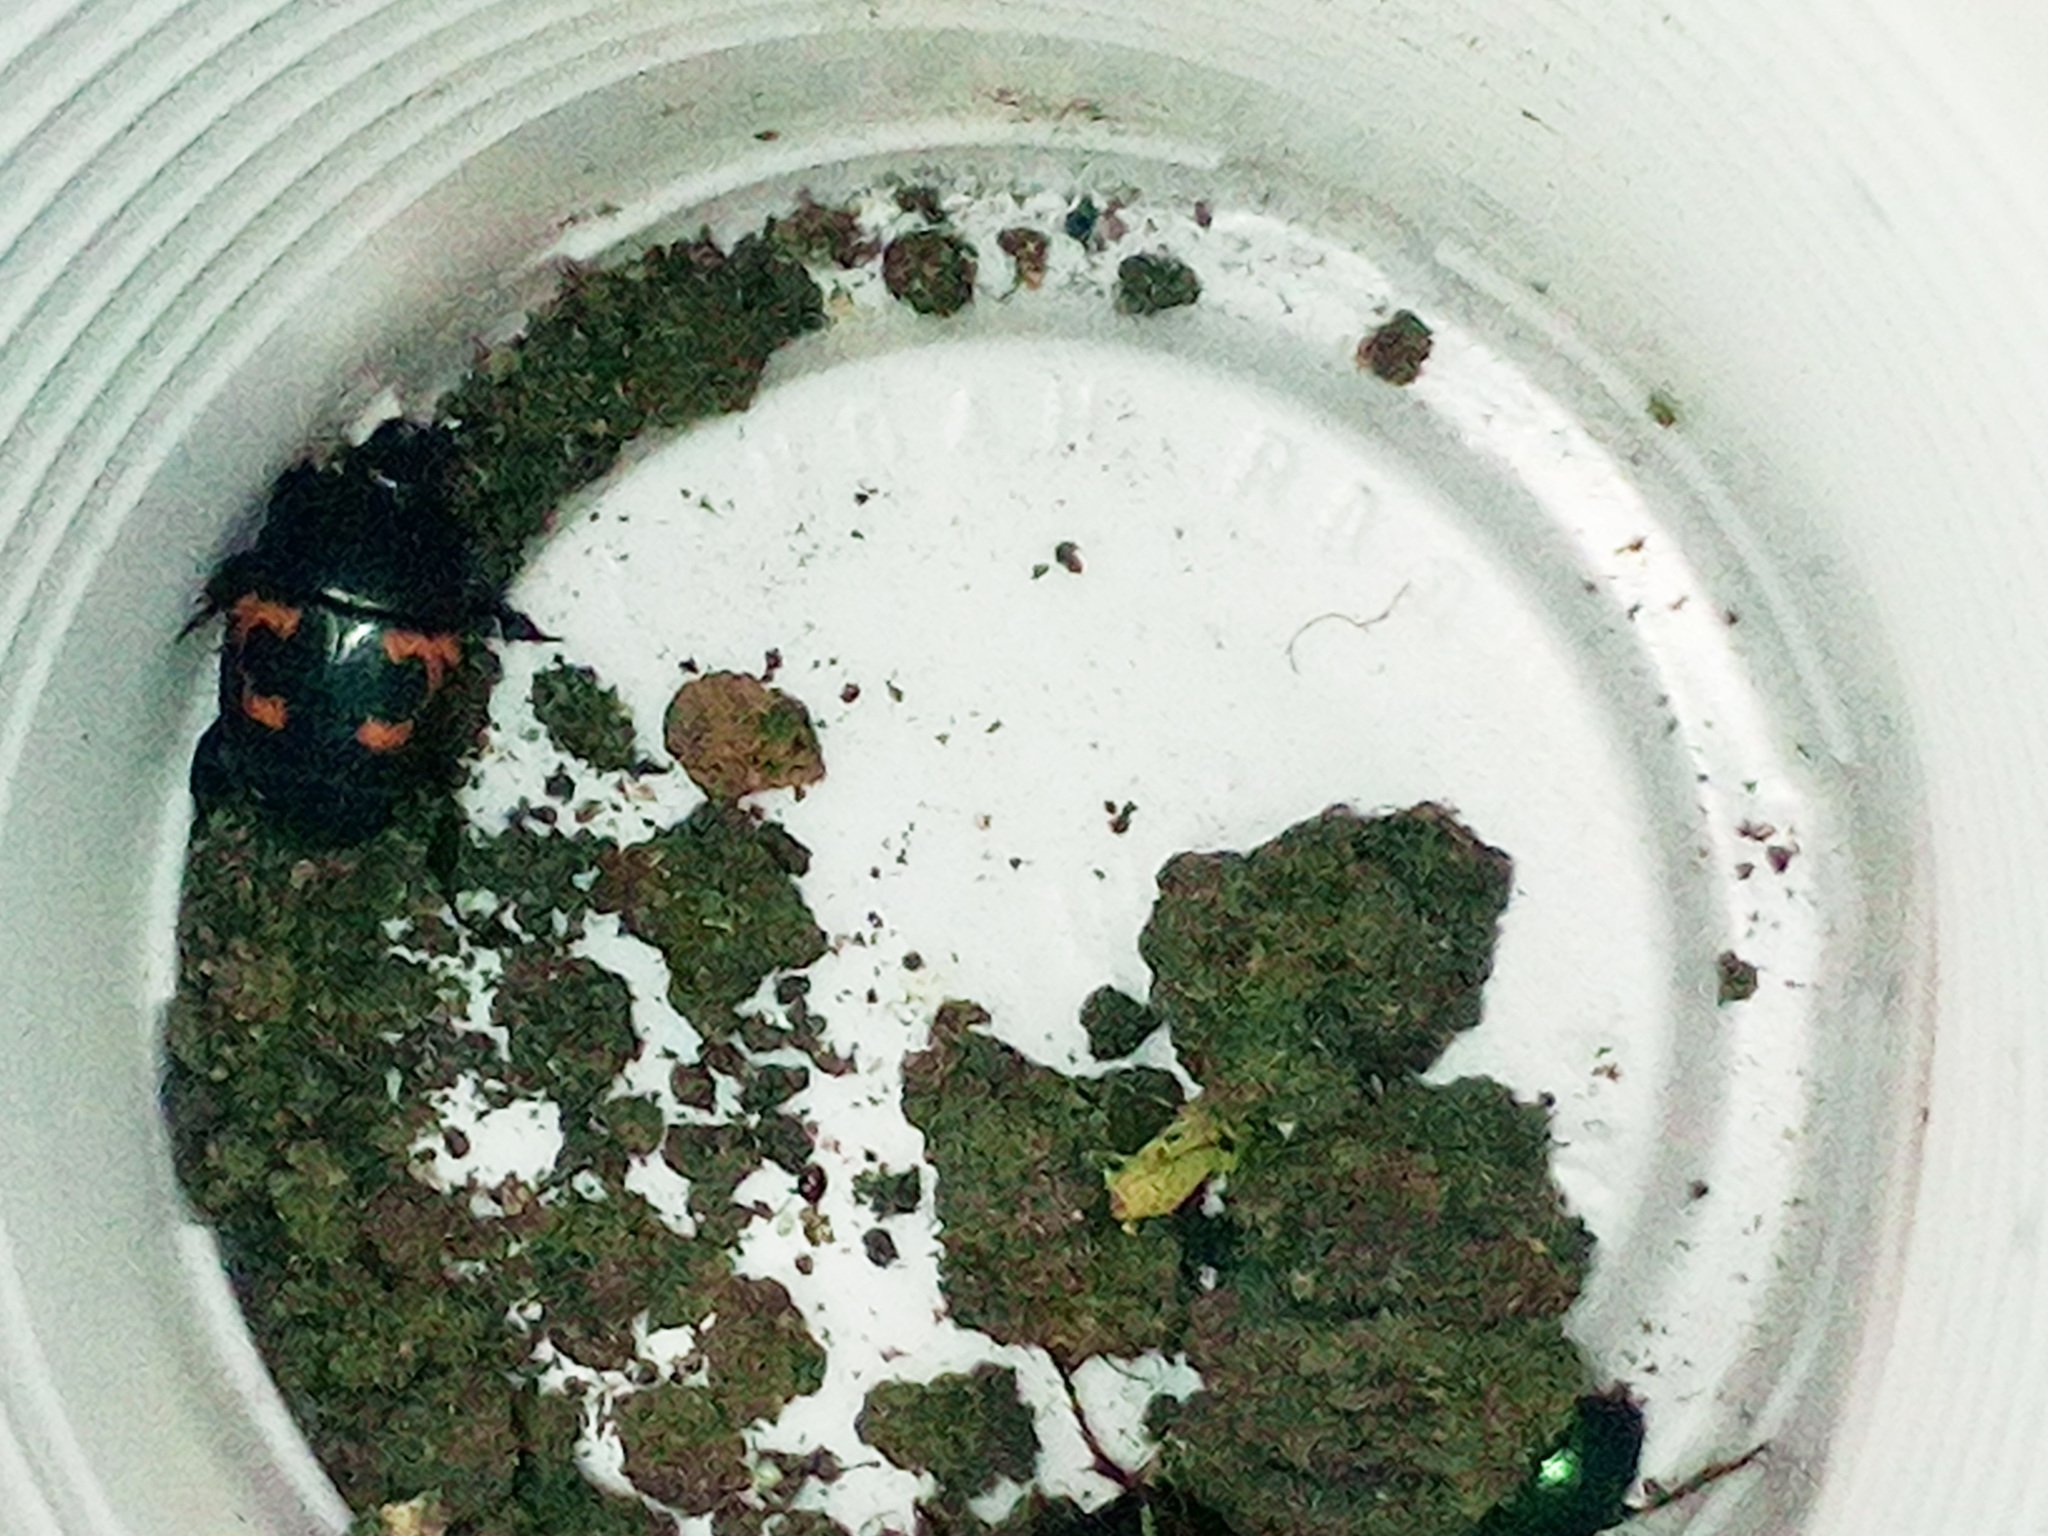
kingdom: Animalia
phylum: Arthropoda
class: Insecta
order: Coleoptera
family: Histeridae
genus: Hister
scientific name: Hister quadrimaculatus
